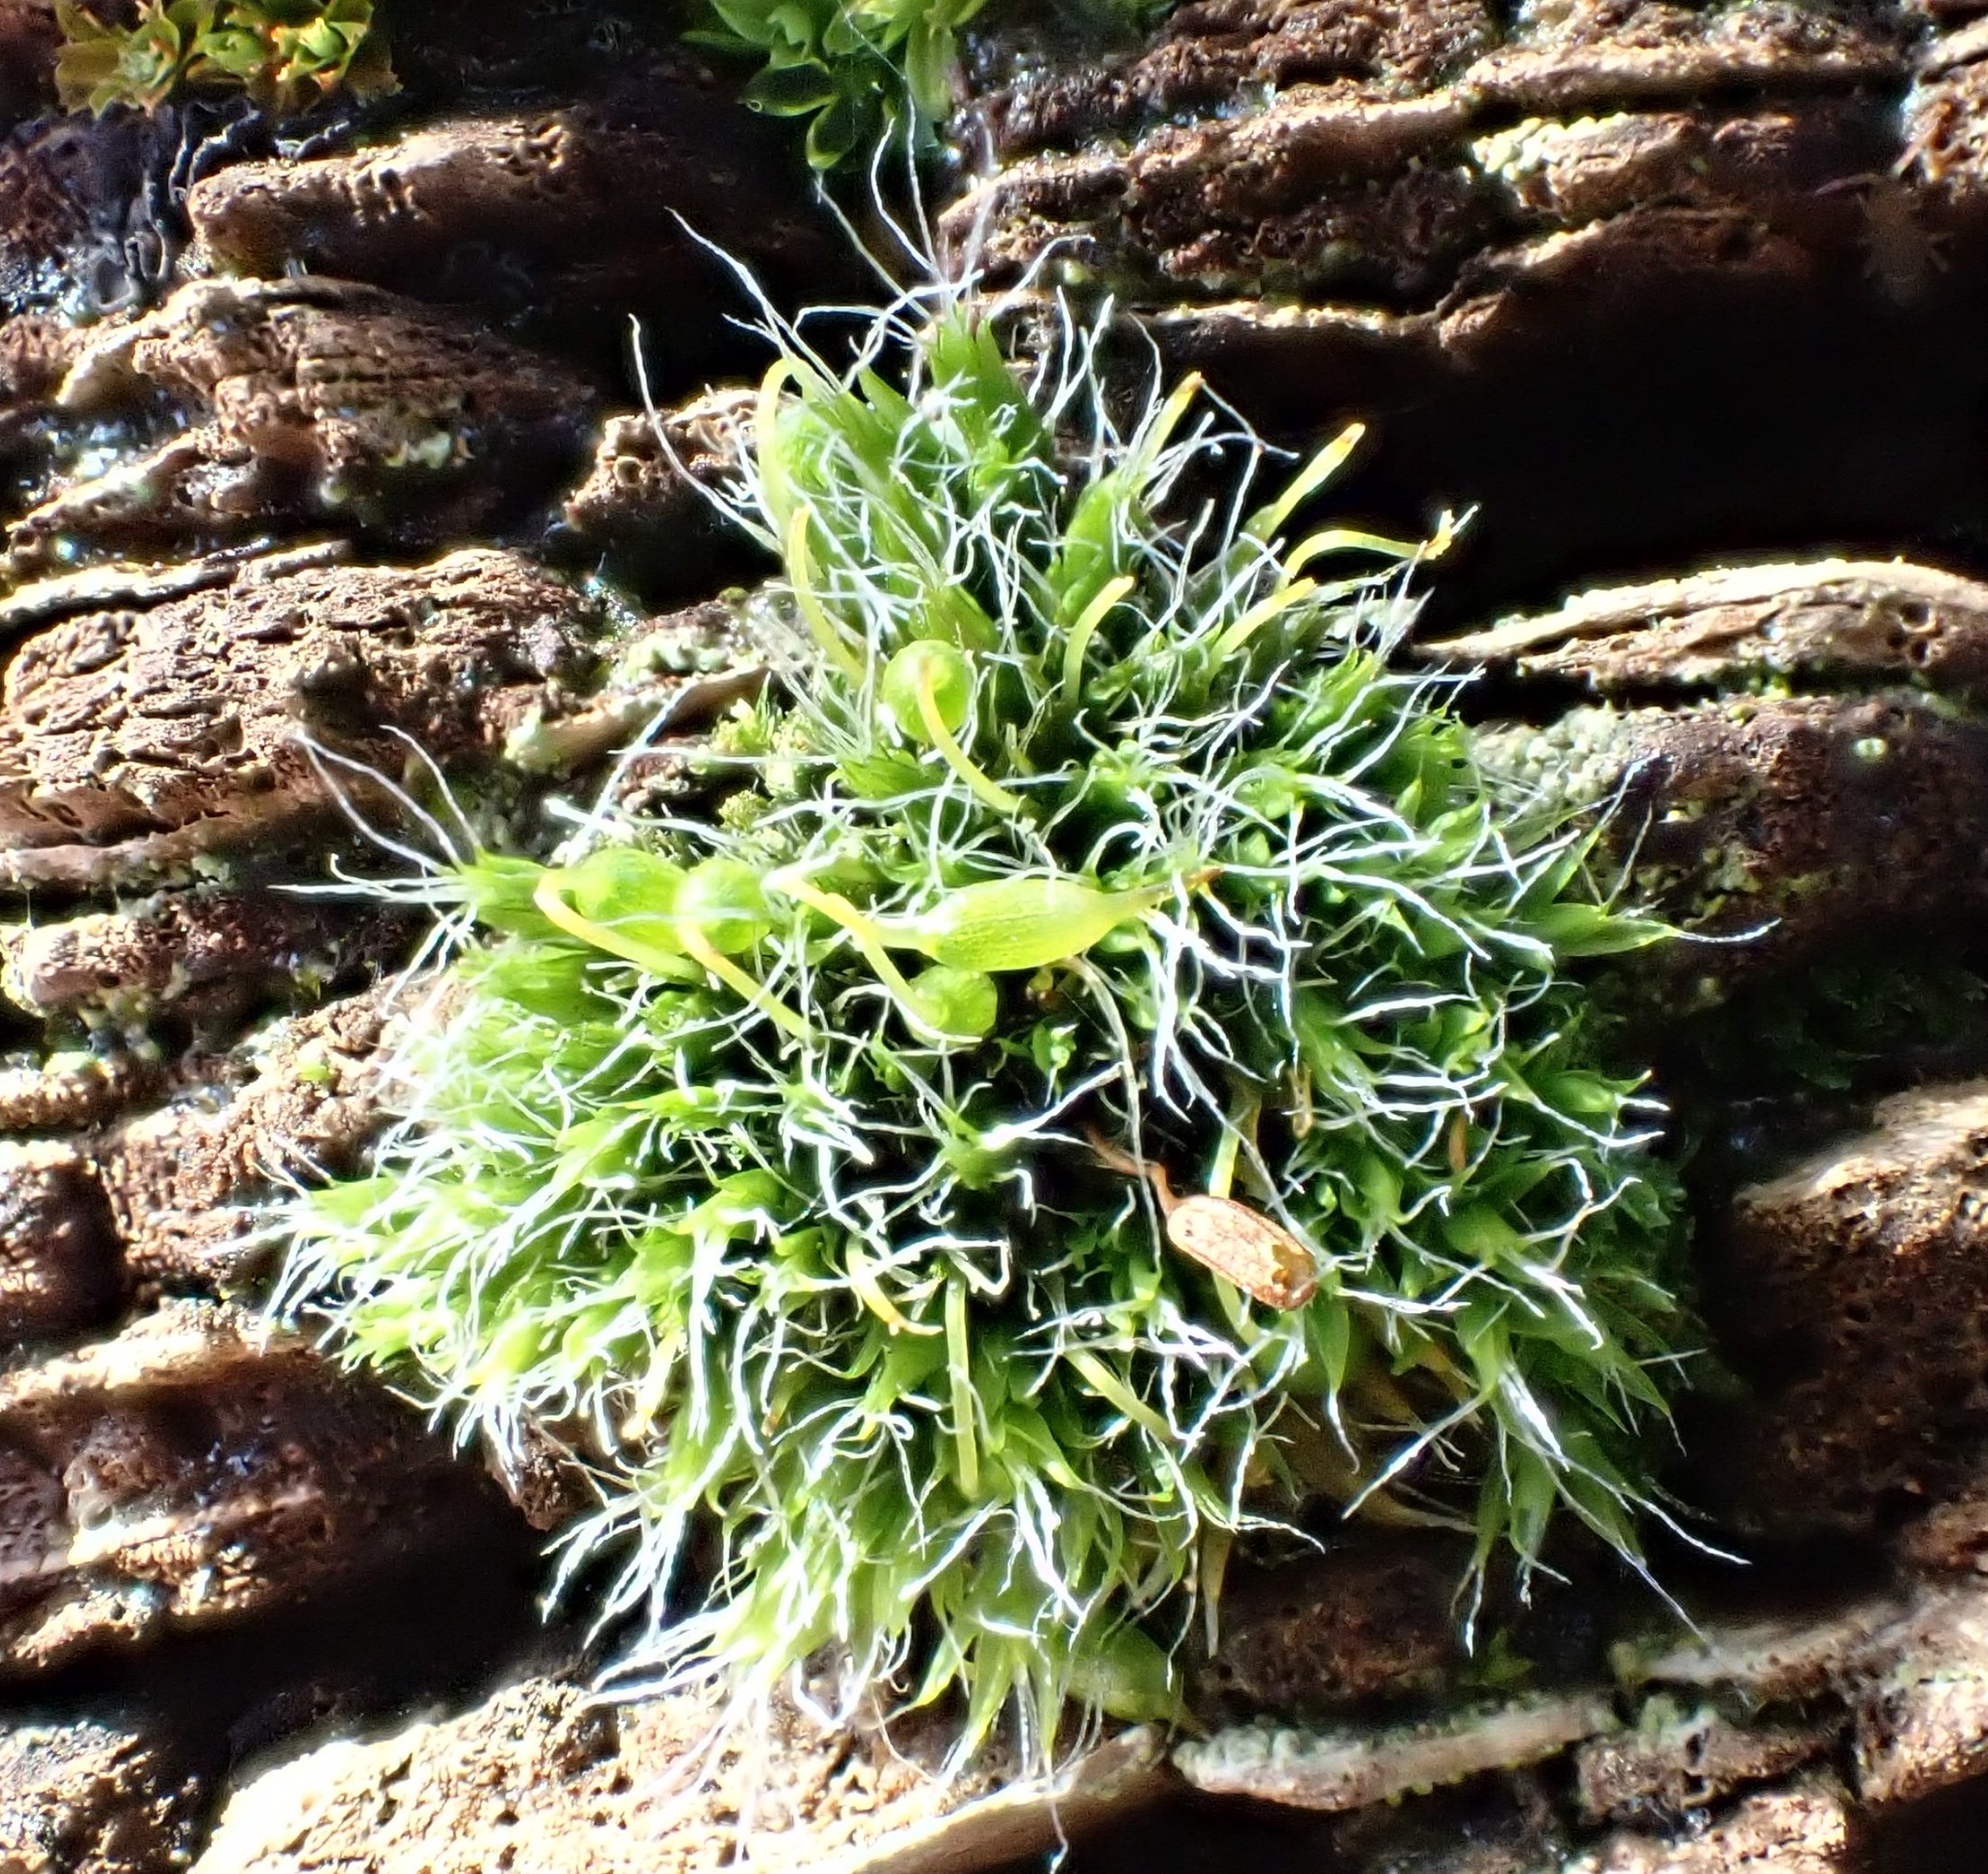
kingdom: Plantae
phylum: Bryophyta
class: Bryopsida
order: Grimmiales
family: Grimmiaceae
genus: Grimmia
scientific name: Grimmia pulvinata
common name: Grey-cushioned grimmia
